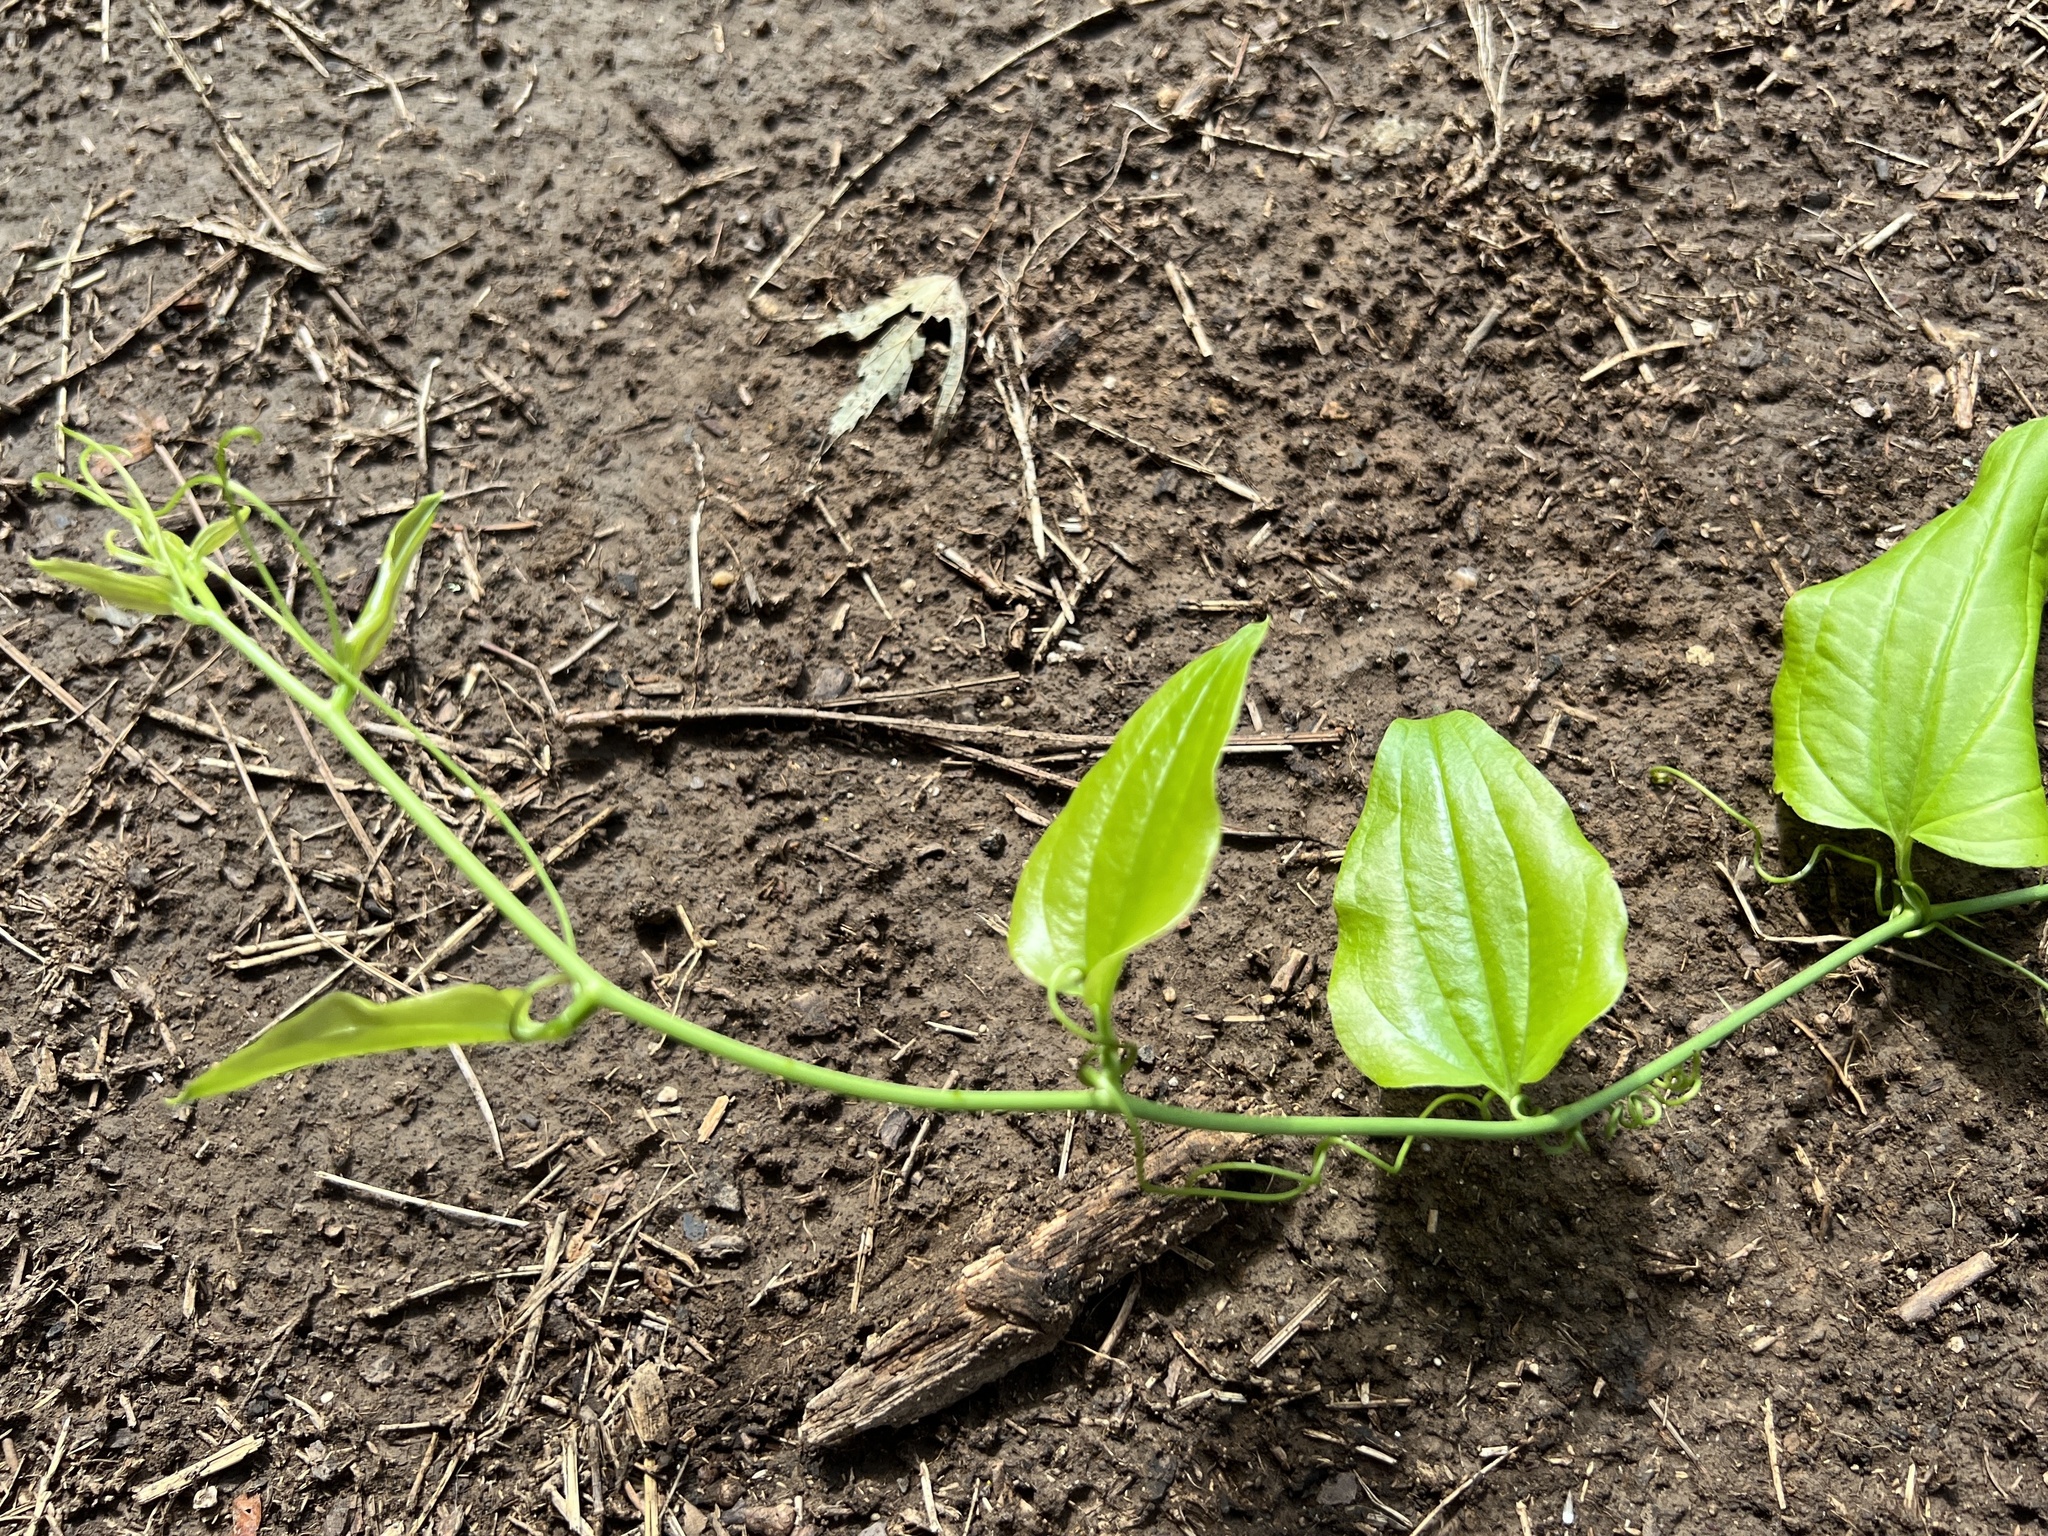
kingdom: Plantae
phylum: Tracheophyta
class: Liliopsida
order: Liliales
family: Smilacaceae
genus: Smilax
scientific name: Smilax tamnoides
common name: Hellfetter
